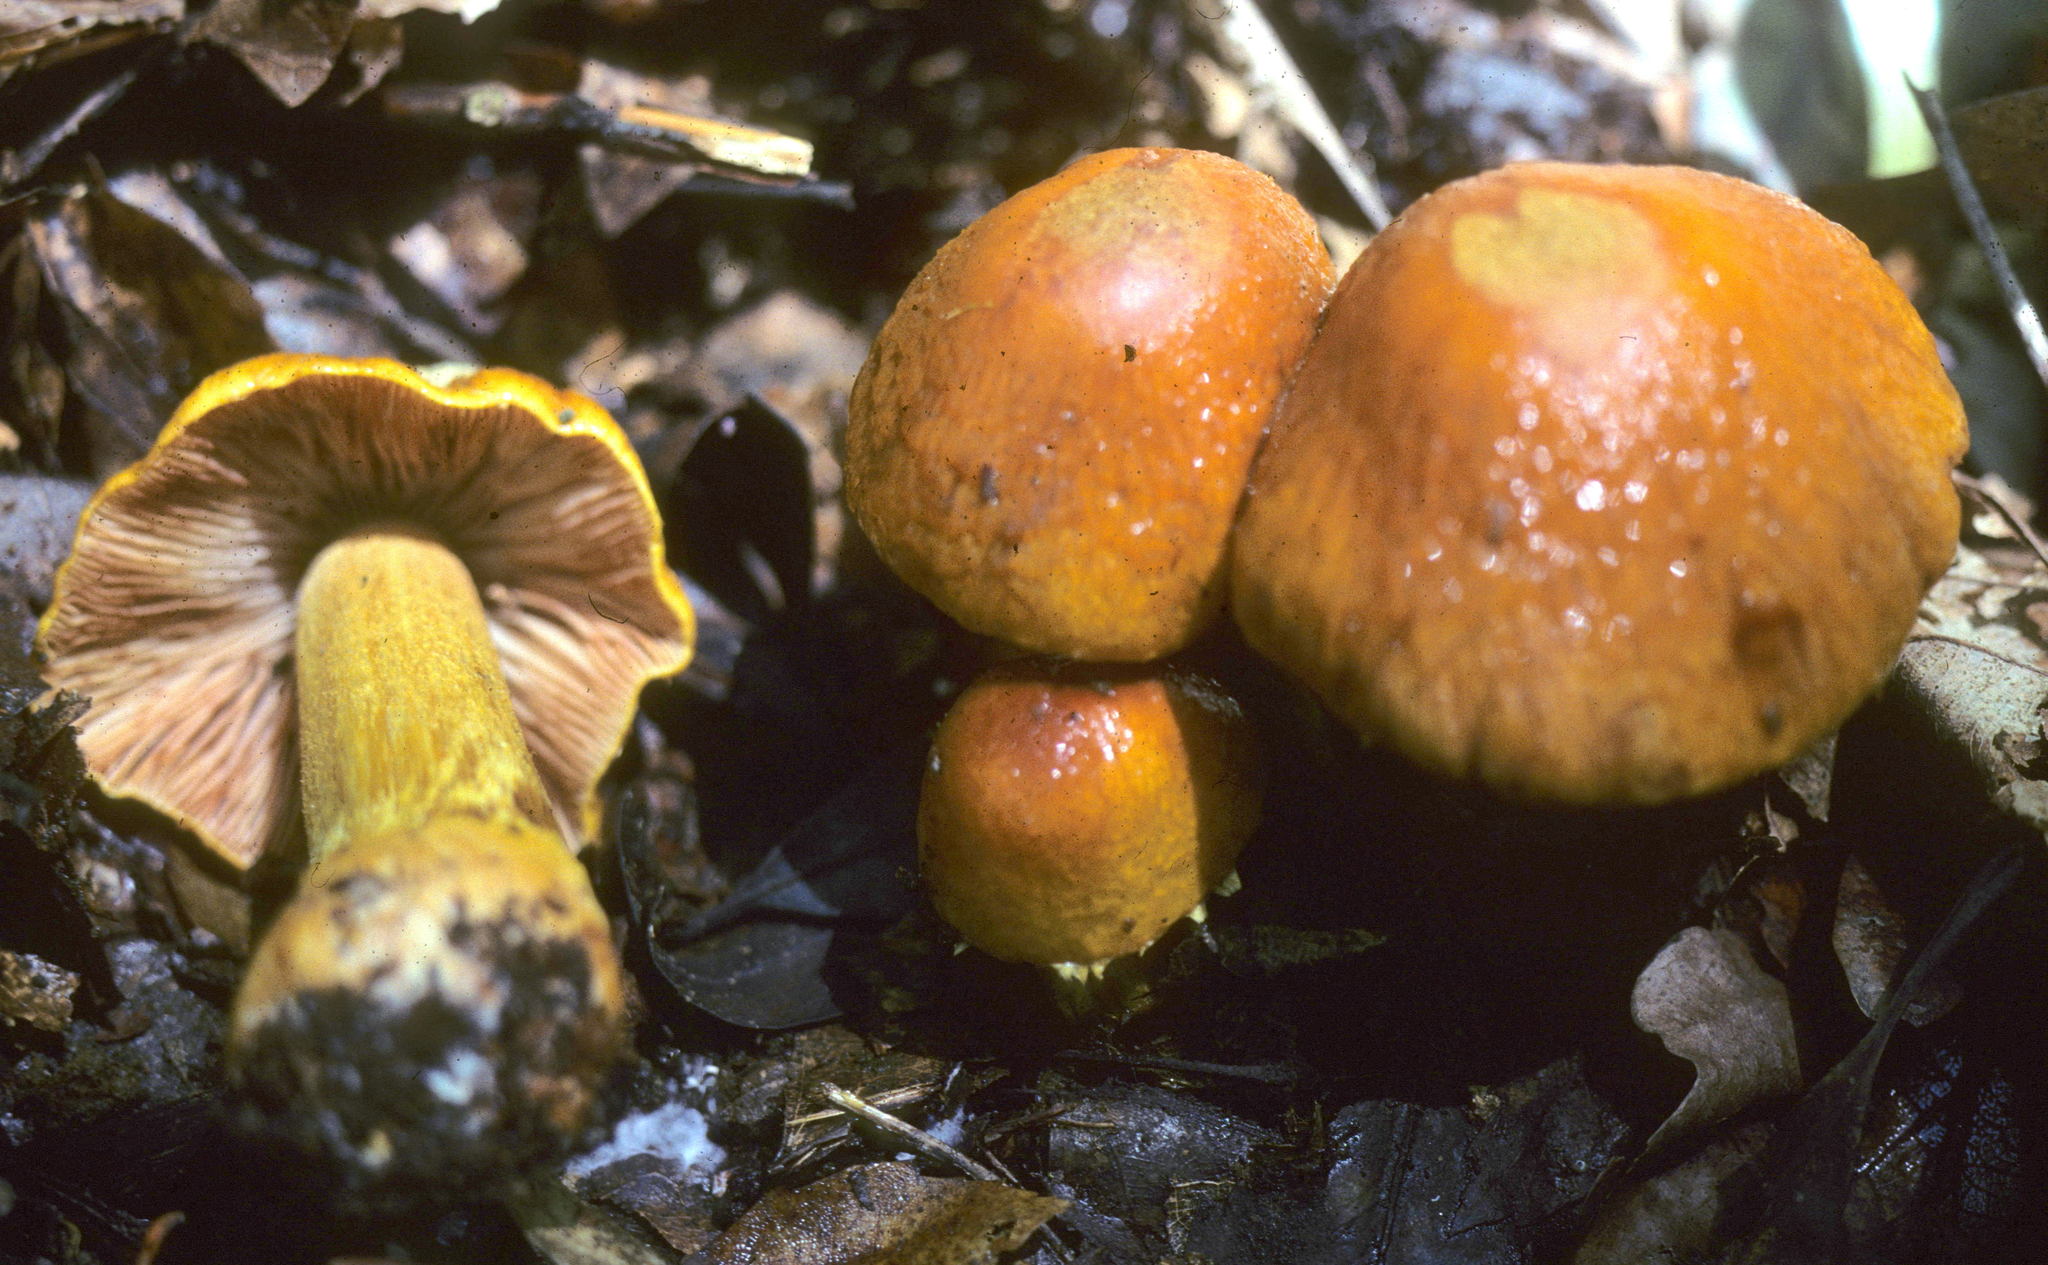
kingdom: Fungi
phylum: Basidiomycota
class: Agaricomycetes
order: Agaricales
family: Cortinariaceae
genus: Cortinarius
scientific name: Cortinarius corrugatus
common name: Wrinkled cortinarius
